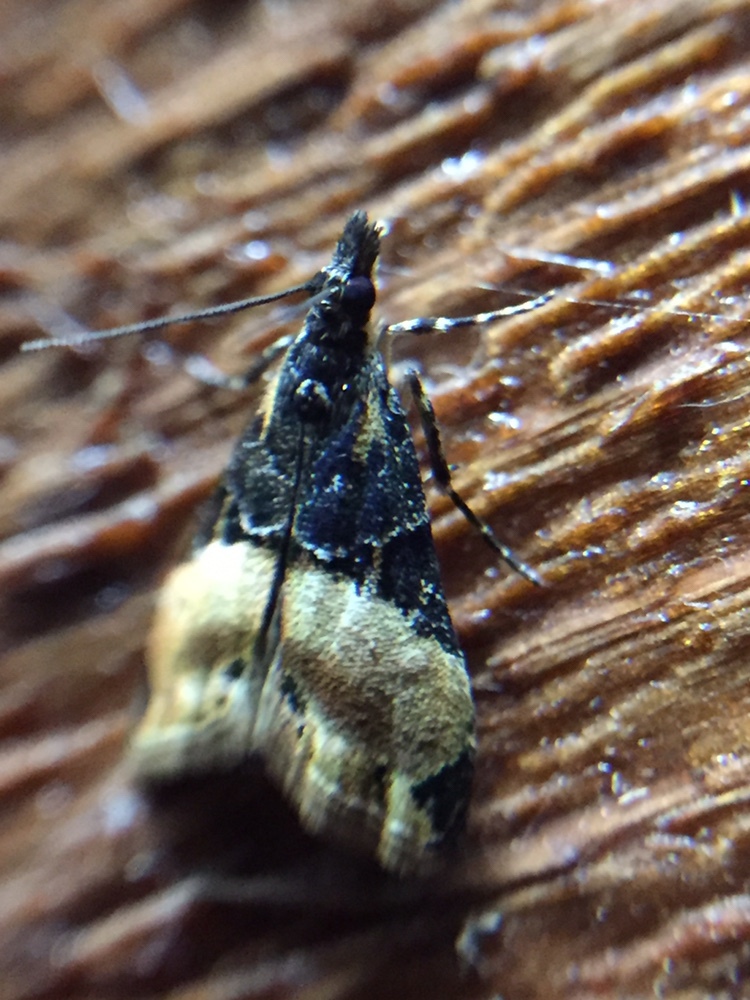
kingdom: Animalia
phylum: Arthropoda
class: Insecta
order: Lepidoptera
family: Crambidae
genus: Eudonia
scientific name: Eudonia chlamydota
